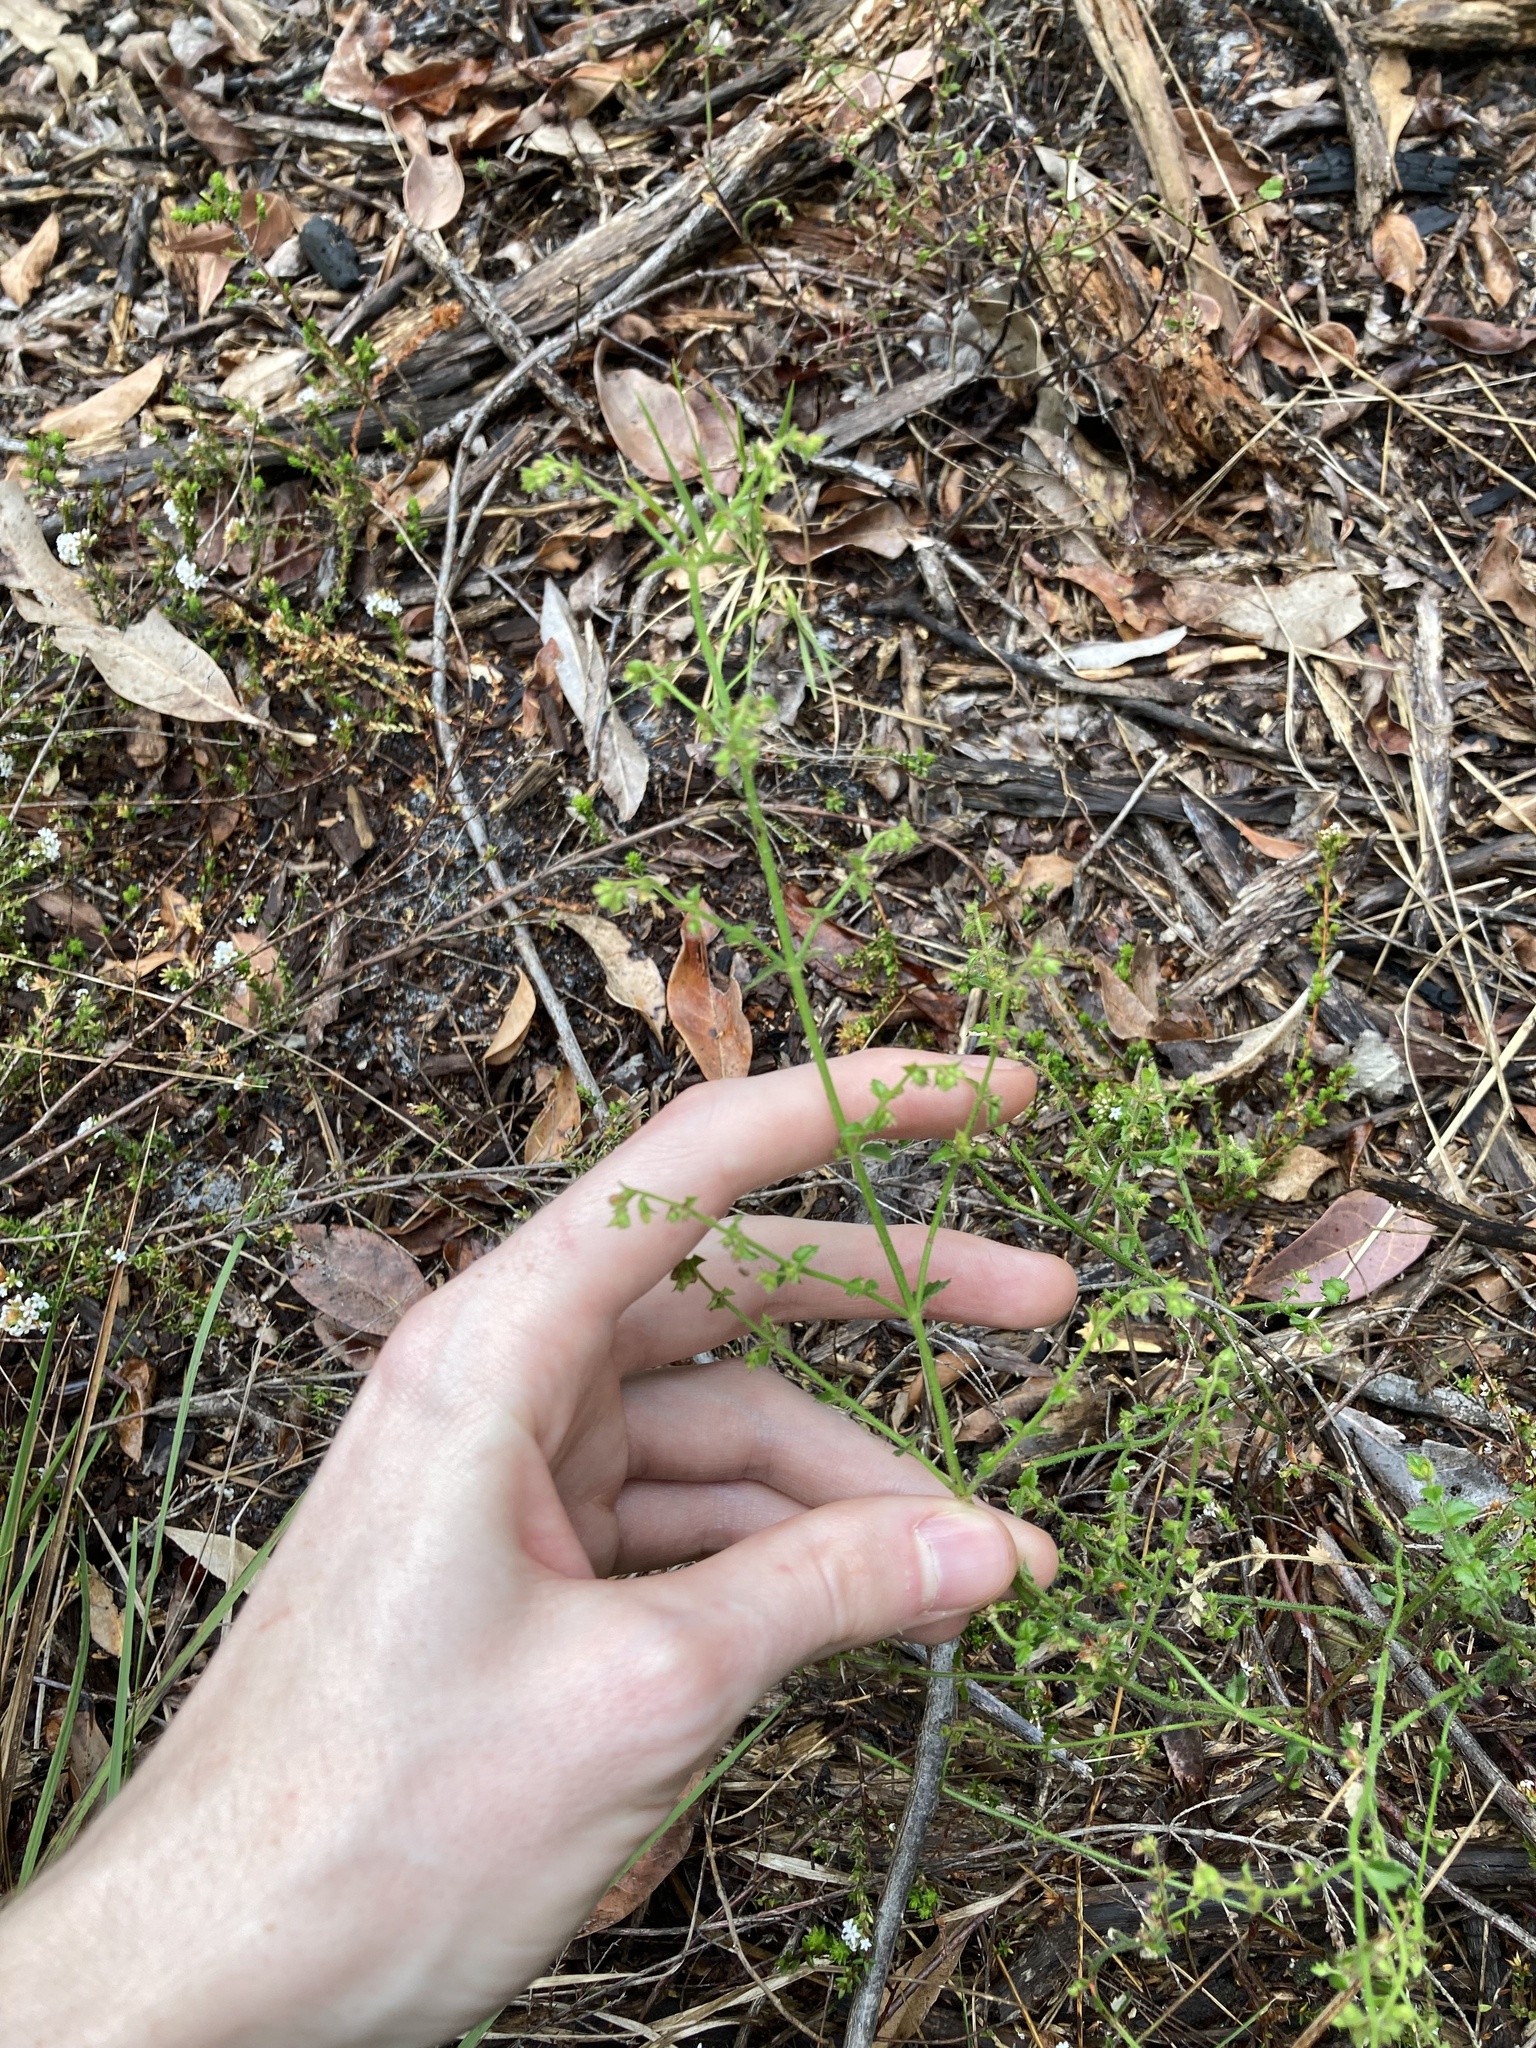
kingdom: Plantae
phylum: Tracheophyta
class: Magnoliopsida
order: Saxifragales
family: Haloragaceae
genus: Gonocarpus
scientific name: Gonocarpus teucrioides
